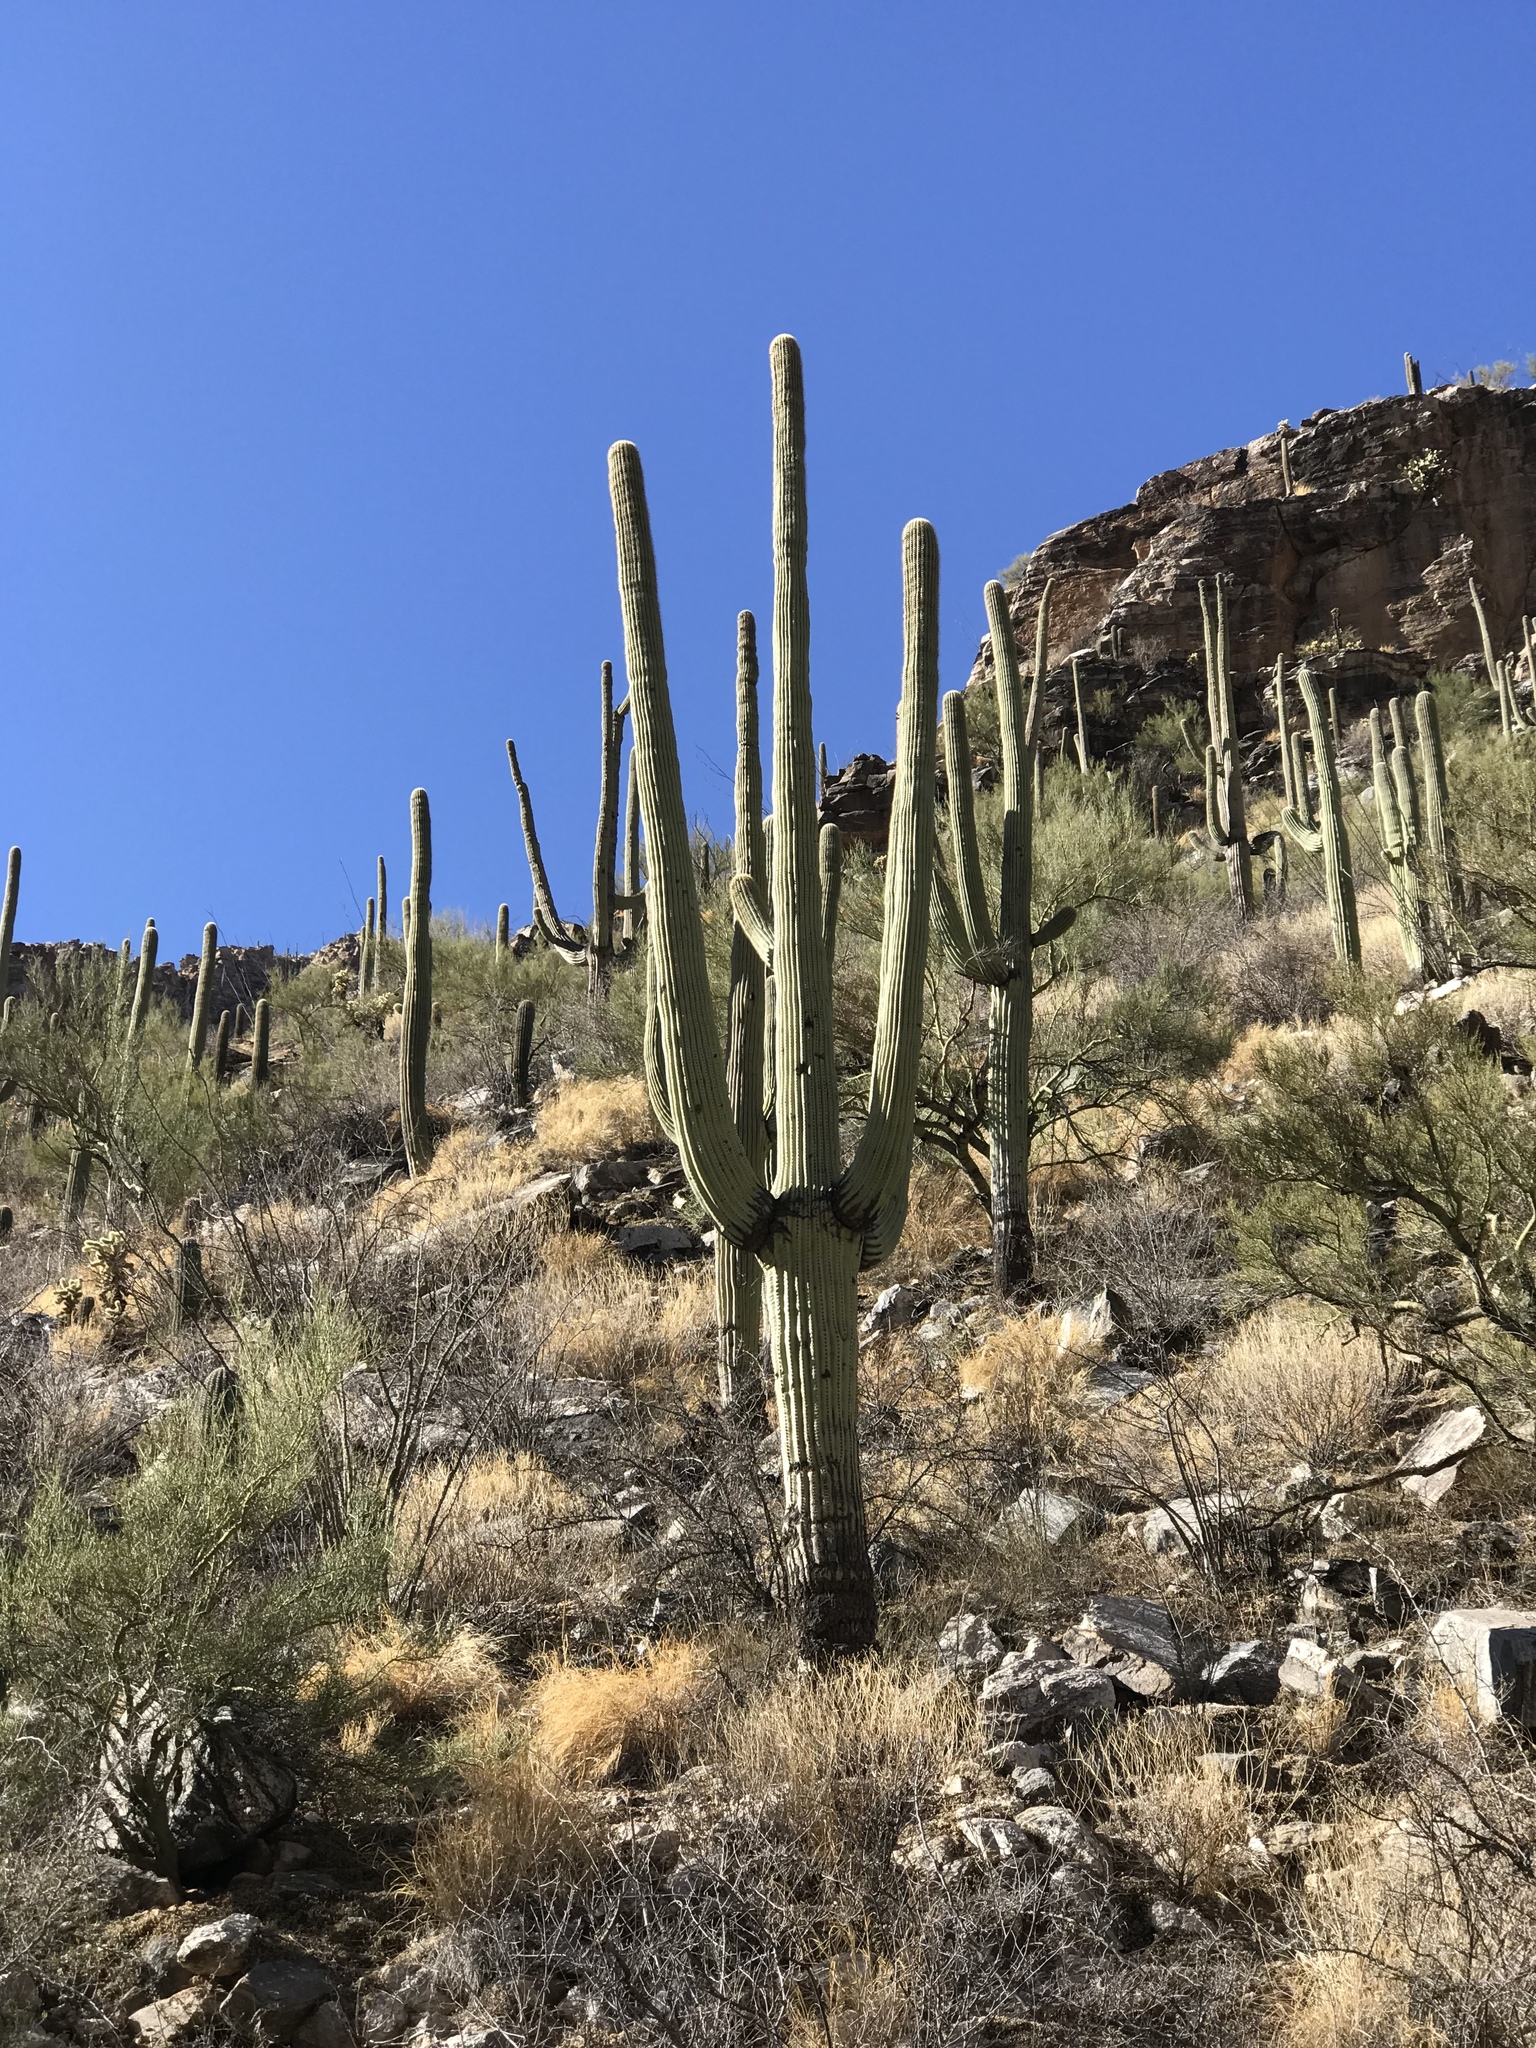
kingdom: Plantae
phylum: Tracheophyta
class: Magnoliopsida
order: Caryophyllales
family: Cactaceae
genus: Carnegiea
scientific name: Carnegiea gigantea
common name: Saguaro
